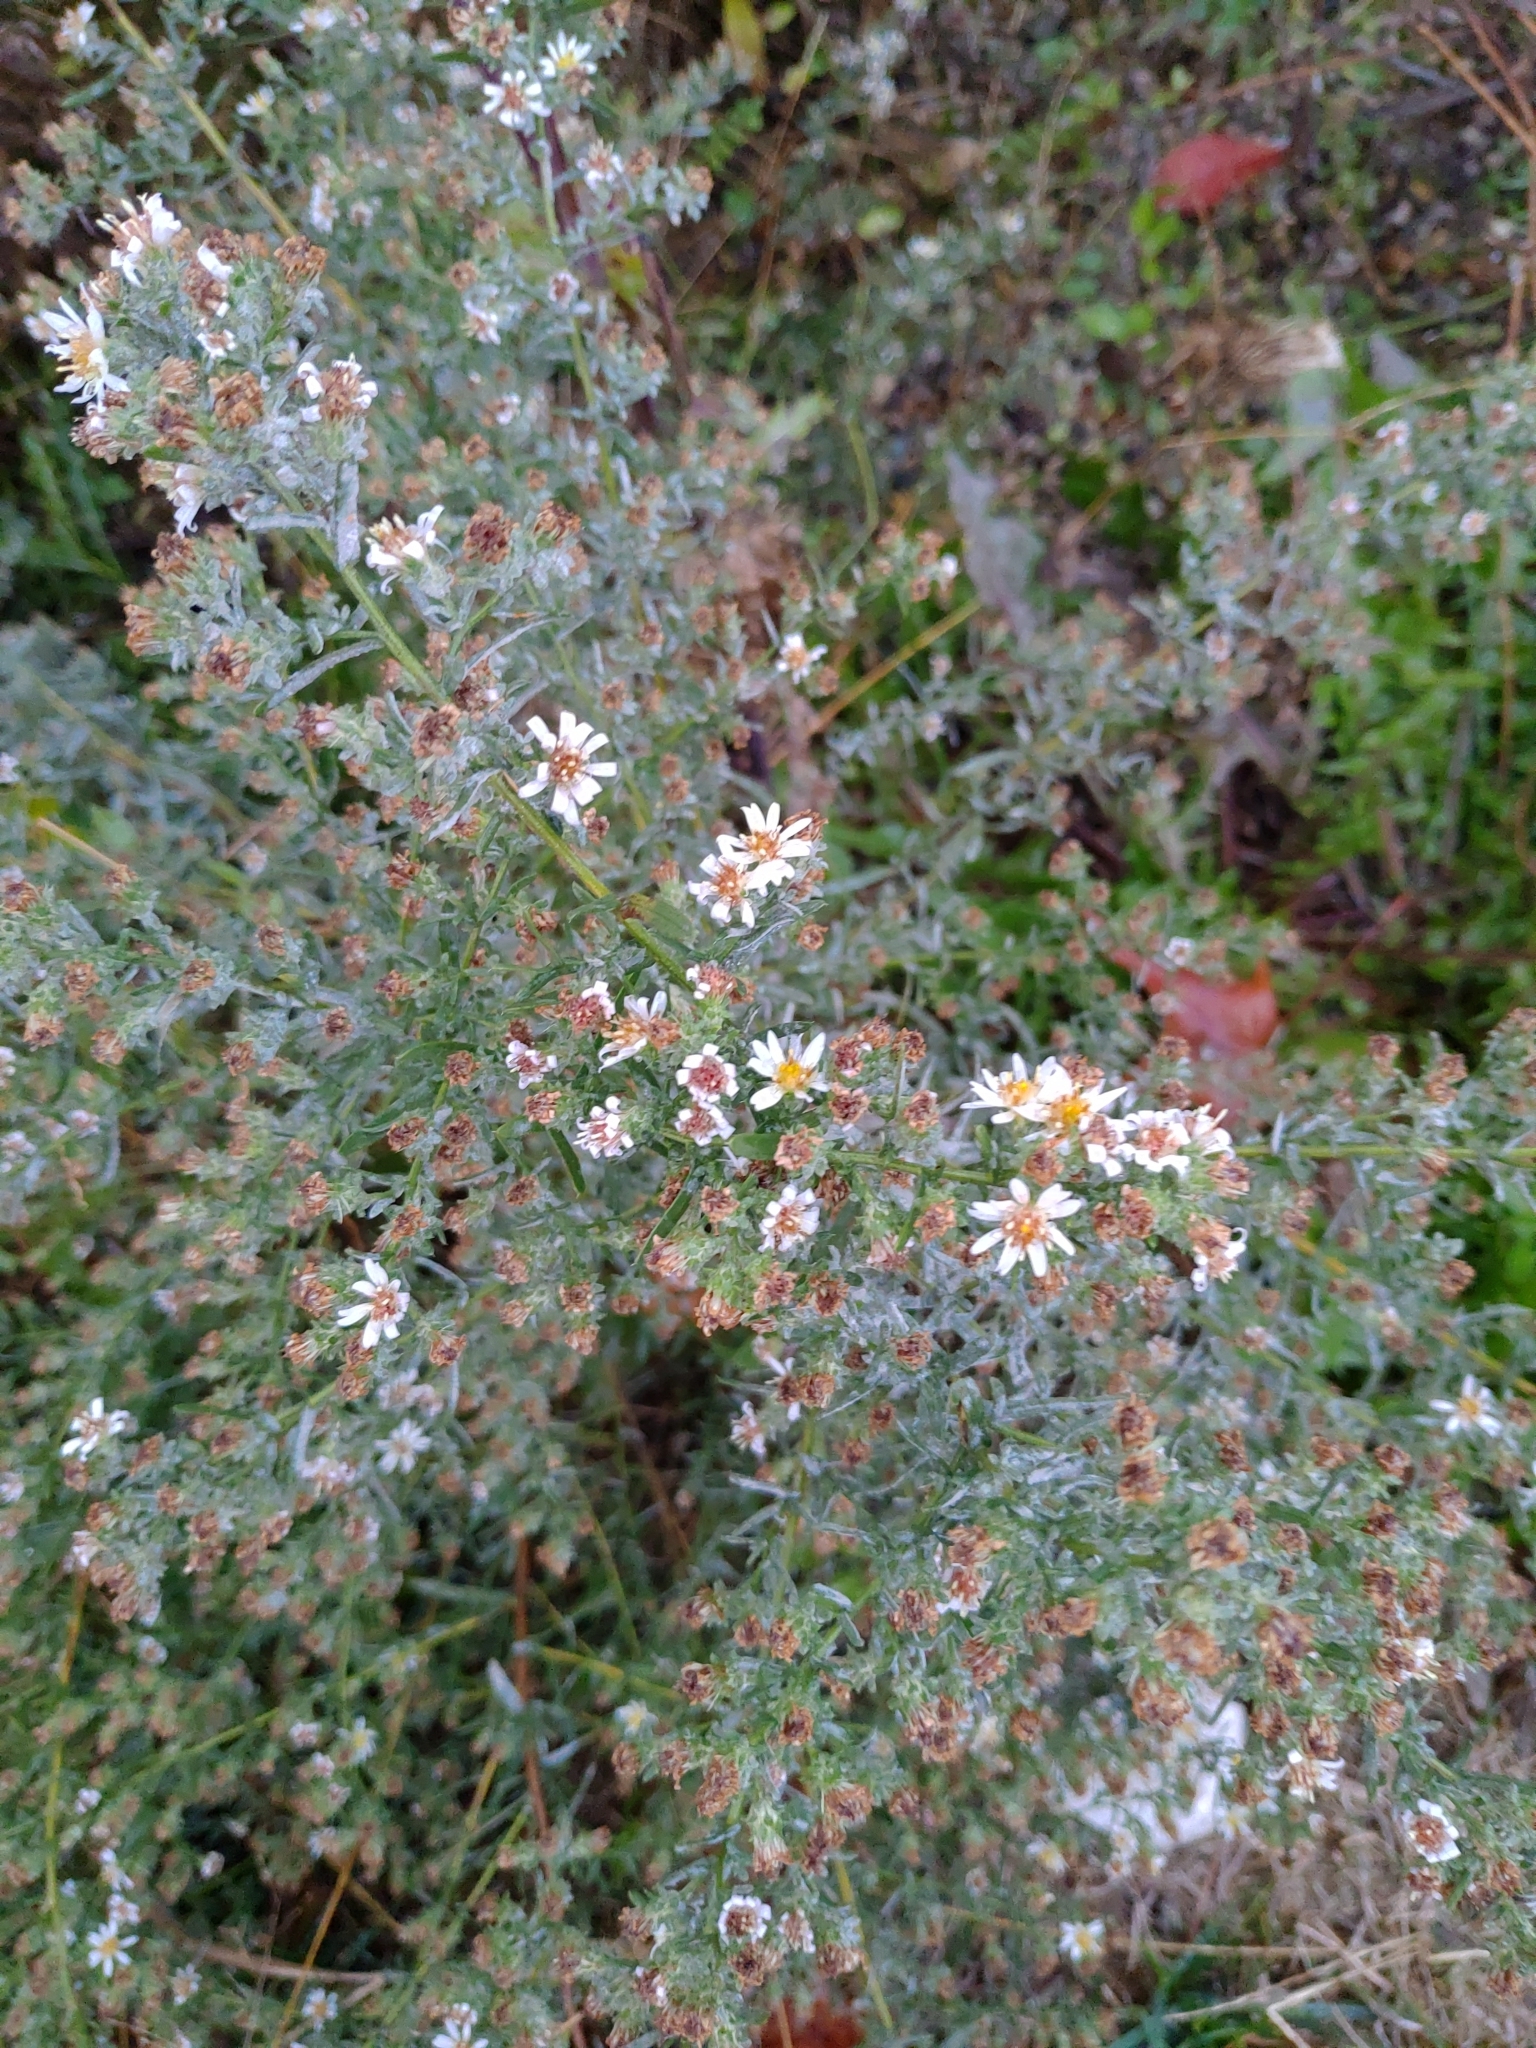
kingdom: Plantae
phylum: Tracheophyta
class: Magnoliopsida
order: Asterales
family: Asteraceae
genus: Symphyotrichum
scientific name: Symphyotrichum ericoides
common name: Heath aster
